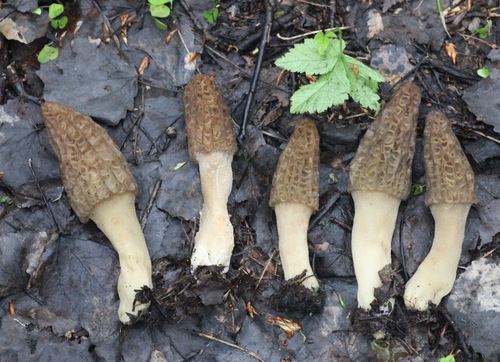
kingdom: Fungi
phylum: Ascomycota
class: Pezizomycetes
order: Pezizales
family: Morchellaceae
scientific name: Morchellaceae
